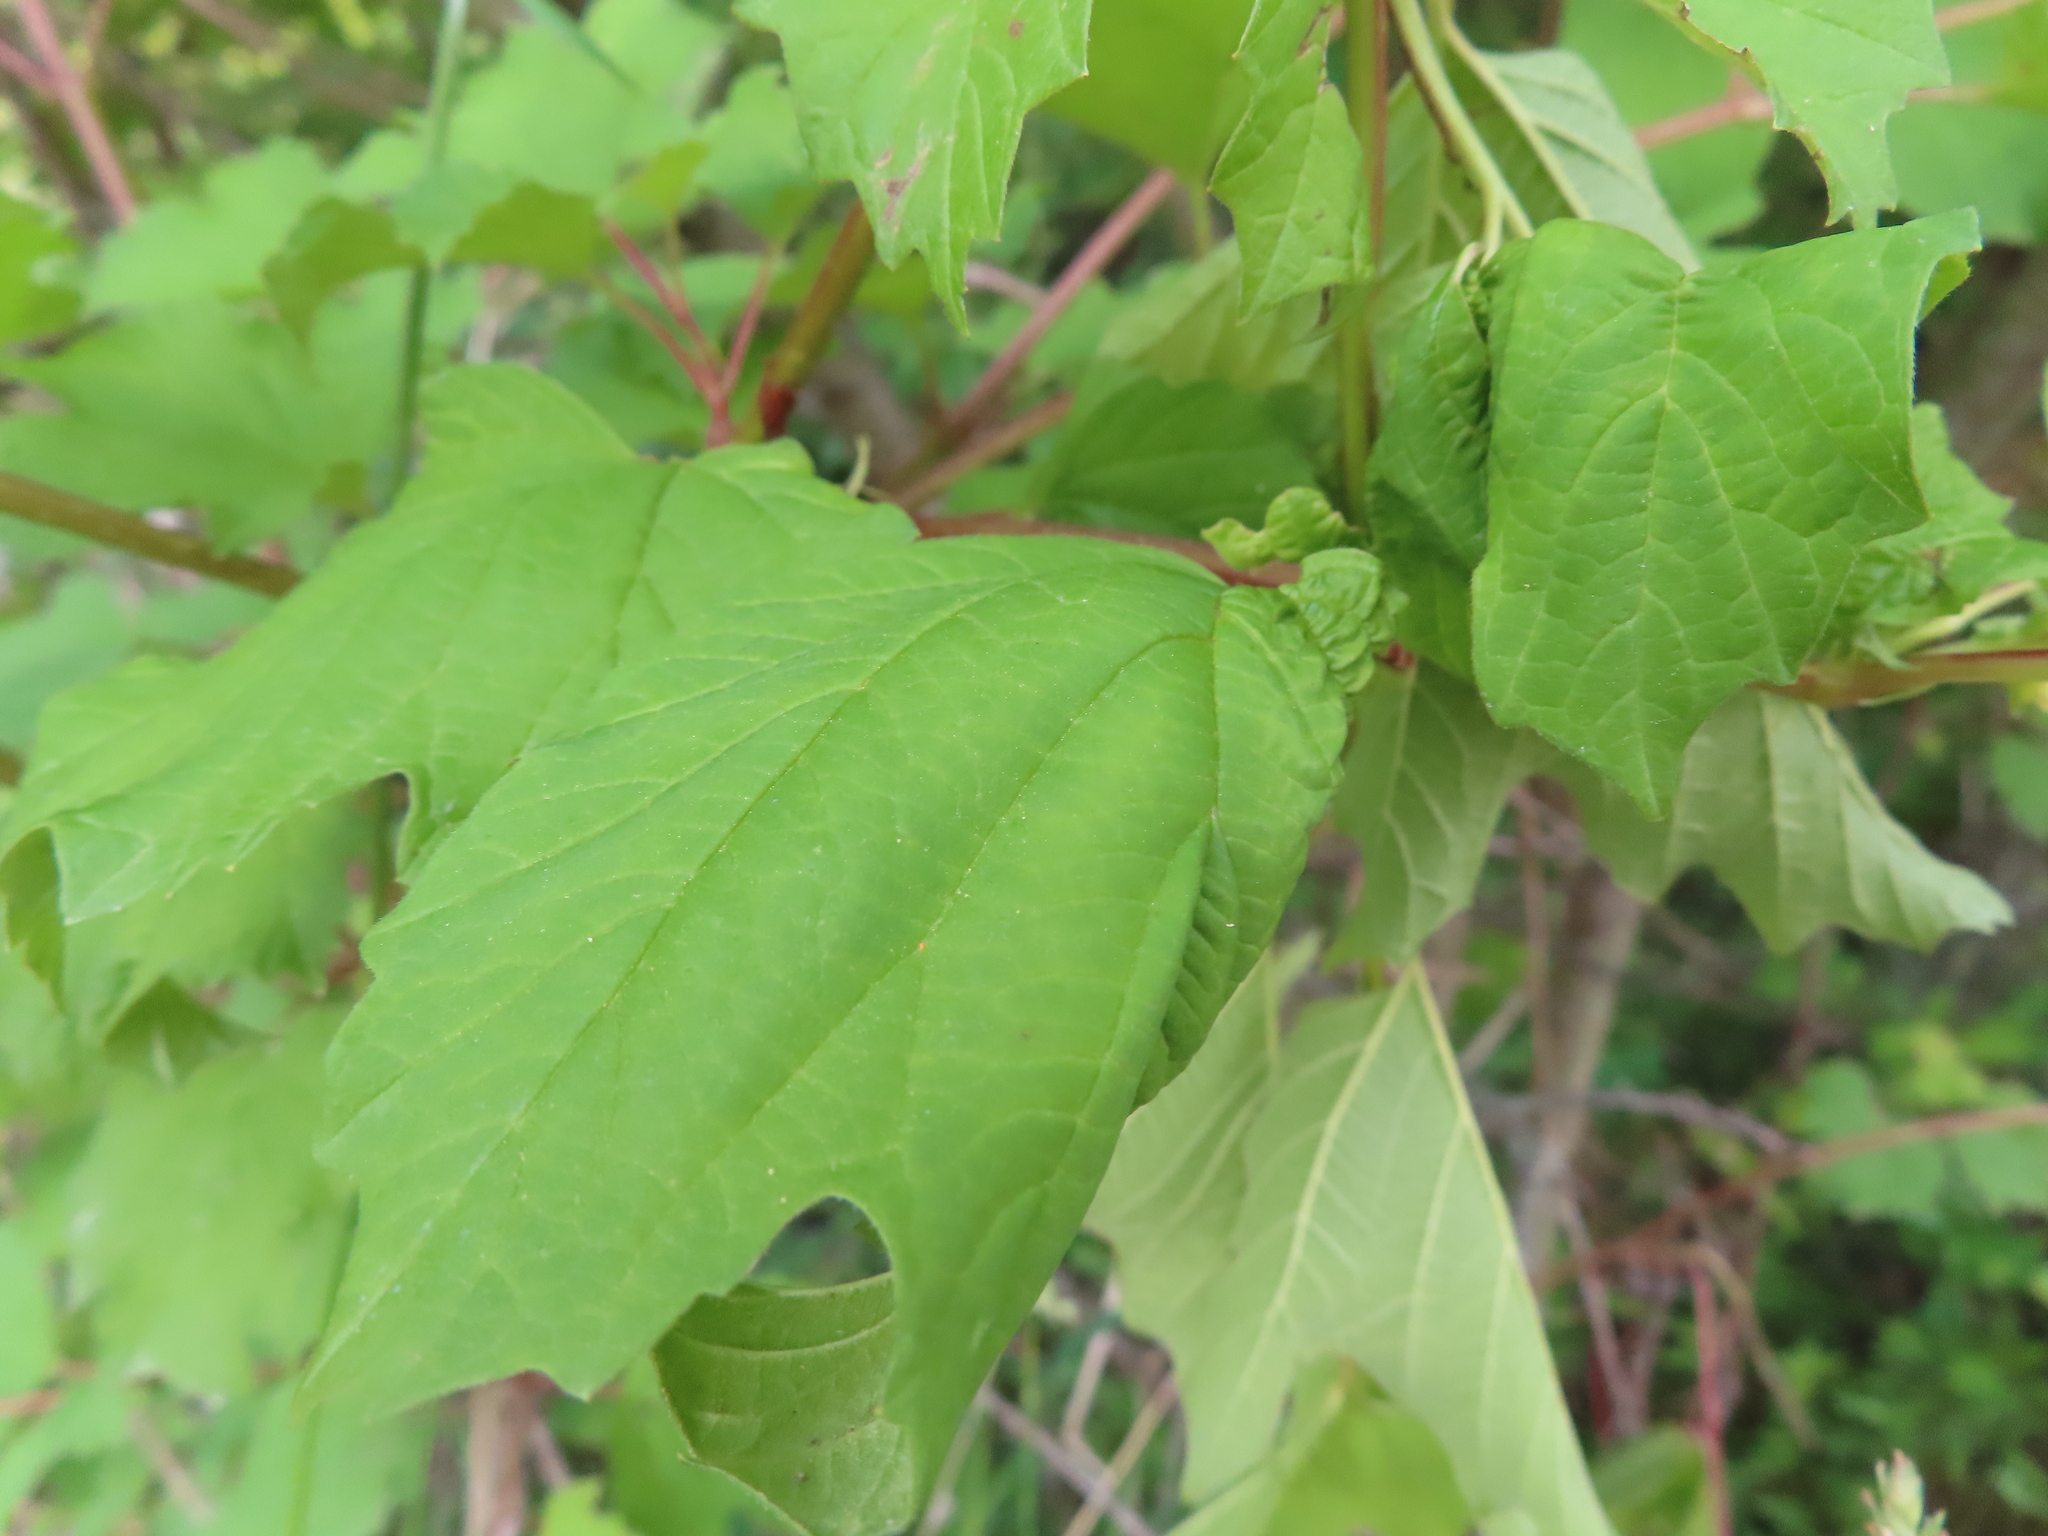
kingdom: Plantae
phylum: Tracheophyta
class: Magnoliopsida
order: Dipsacales
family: Viburnaceae
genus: Viburnum
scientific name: Viburnum opulus
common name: Guelder-rose
